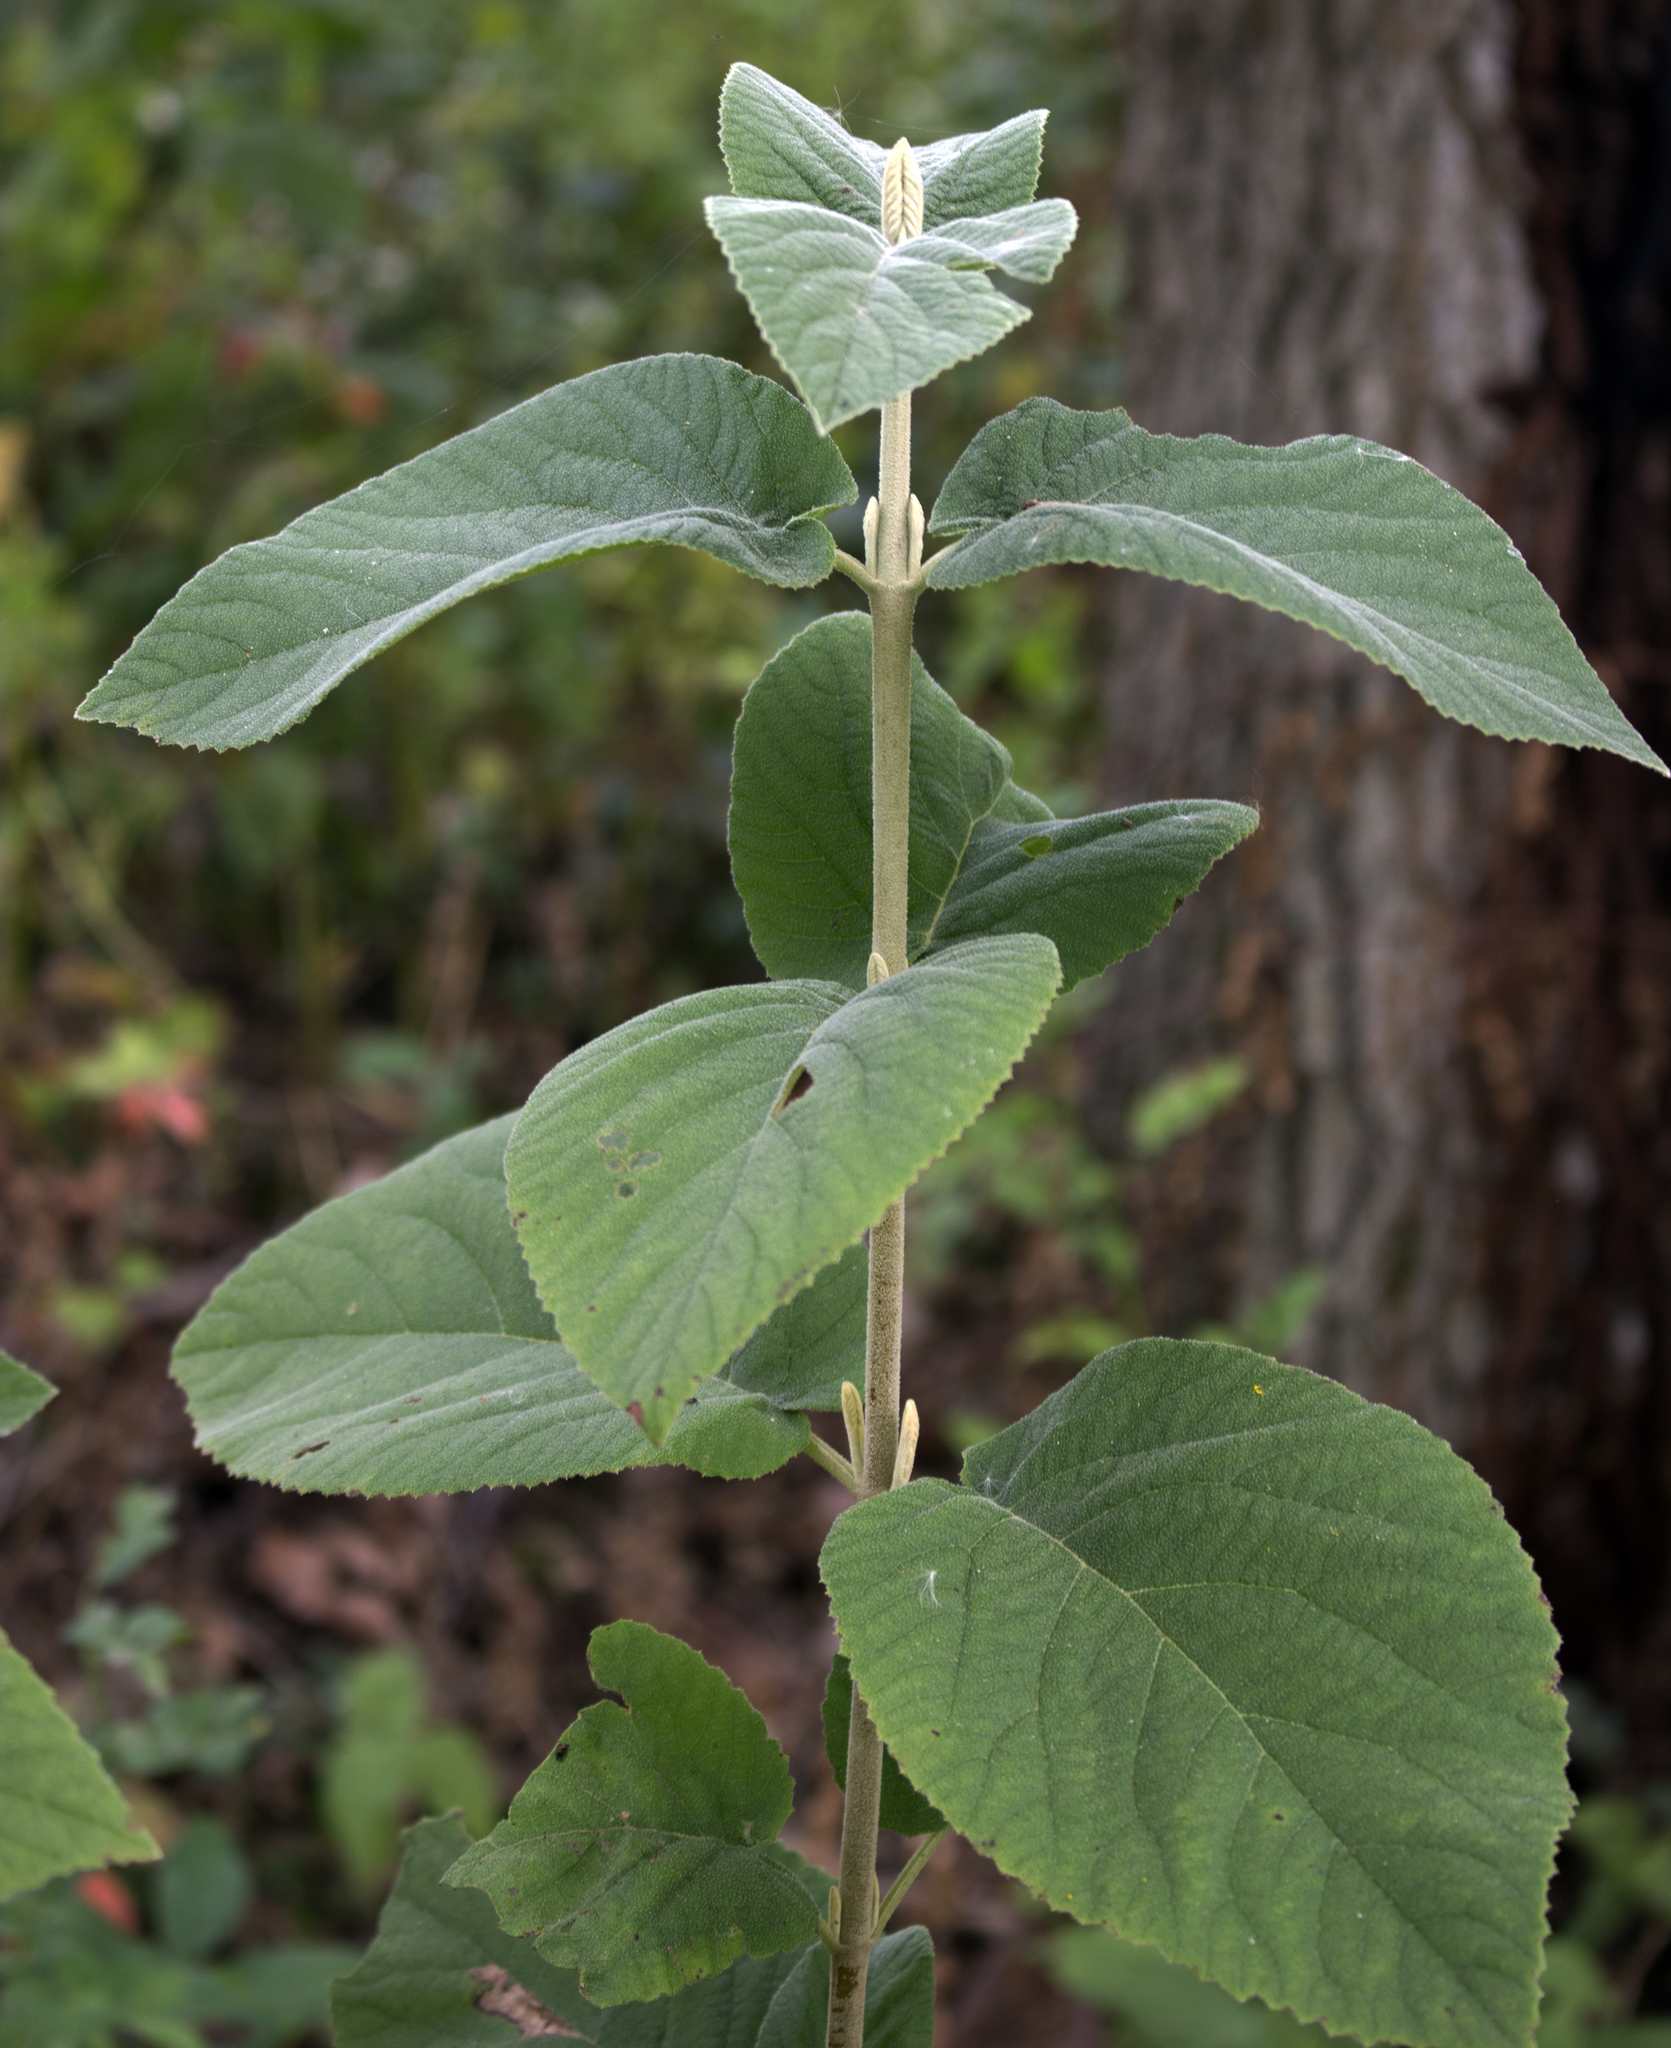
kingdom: Plantae
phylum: Tracheophyta
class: Magnoliopsida
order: Dipsacales
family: Viburnaceae
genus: Viburnum
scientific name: Viburnum lantana
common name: Wayfaring tree
